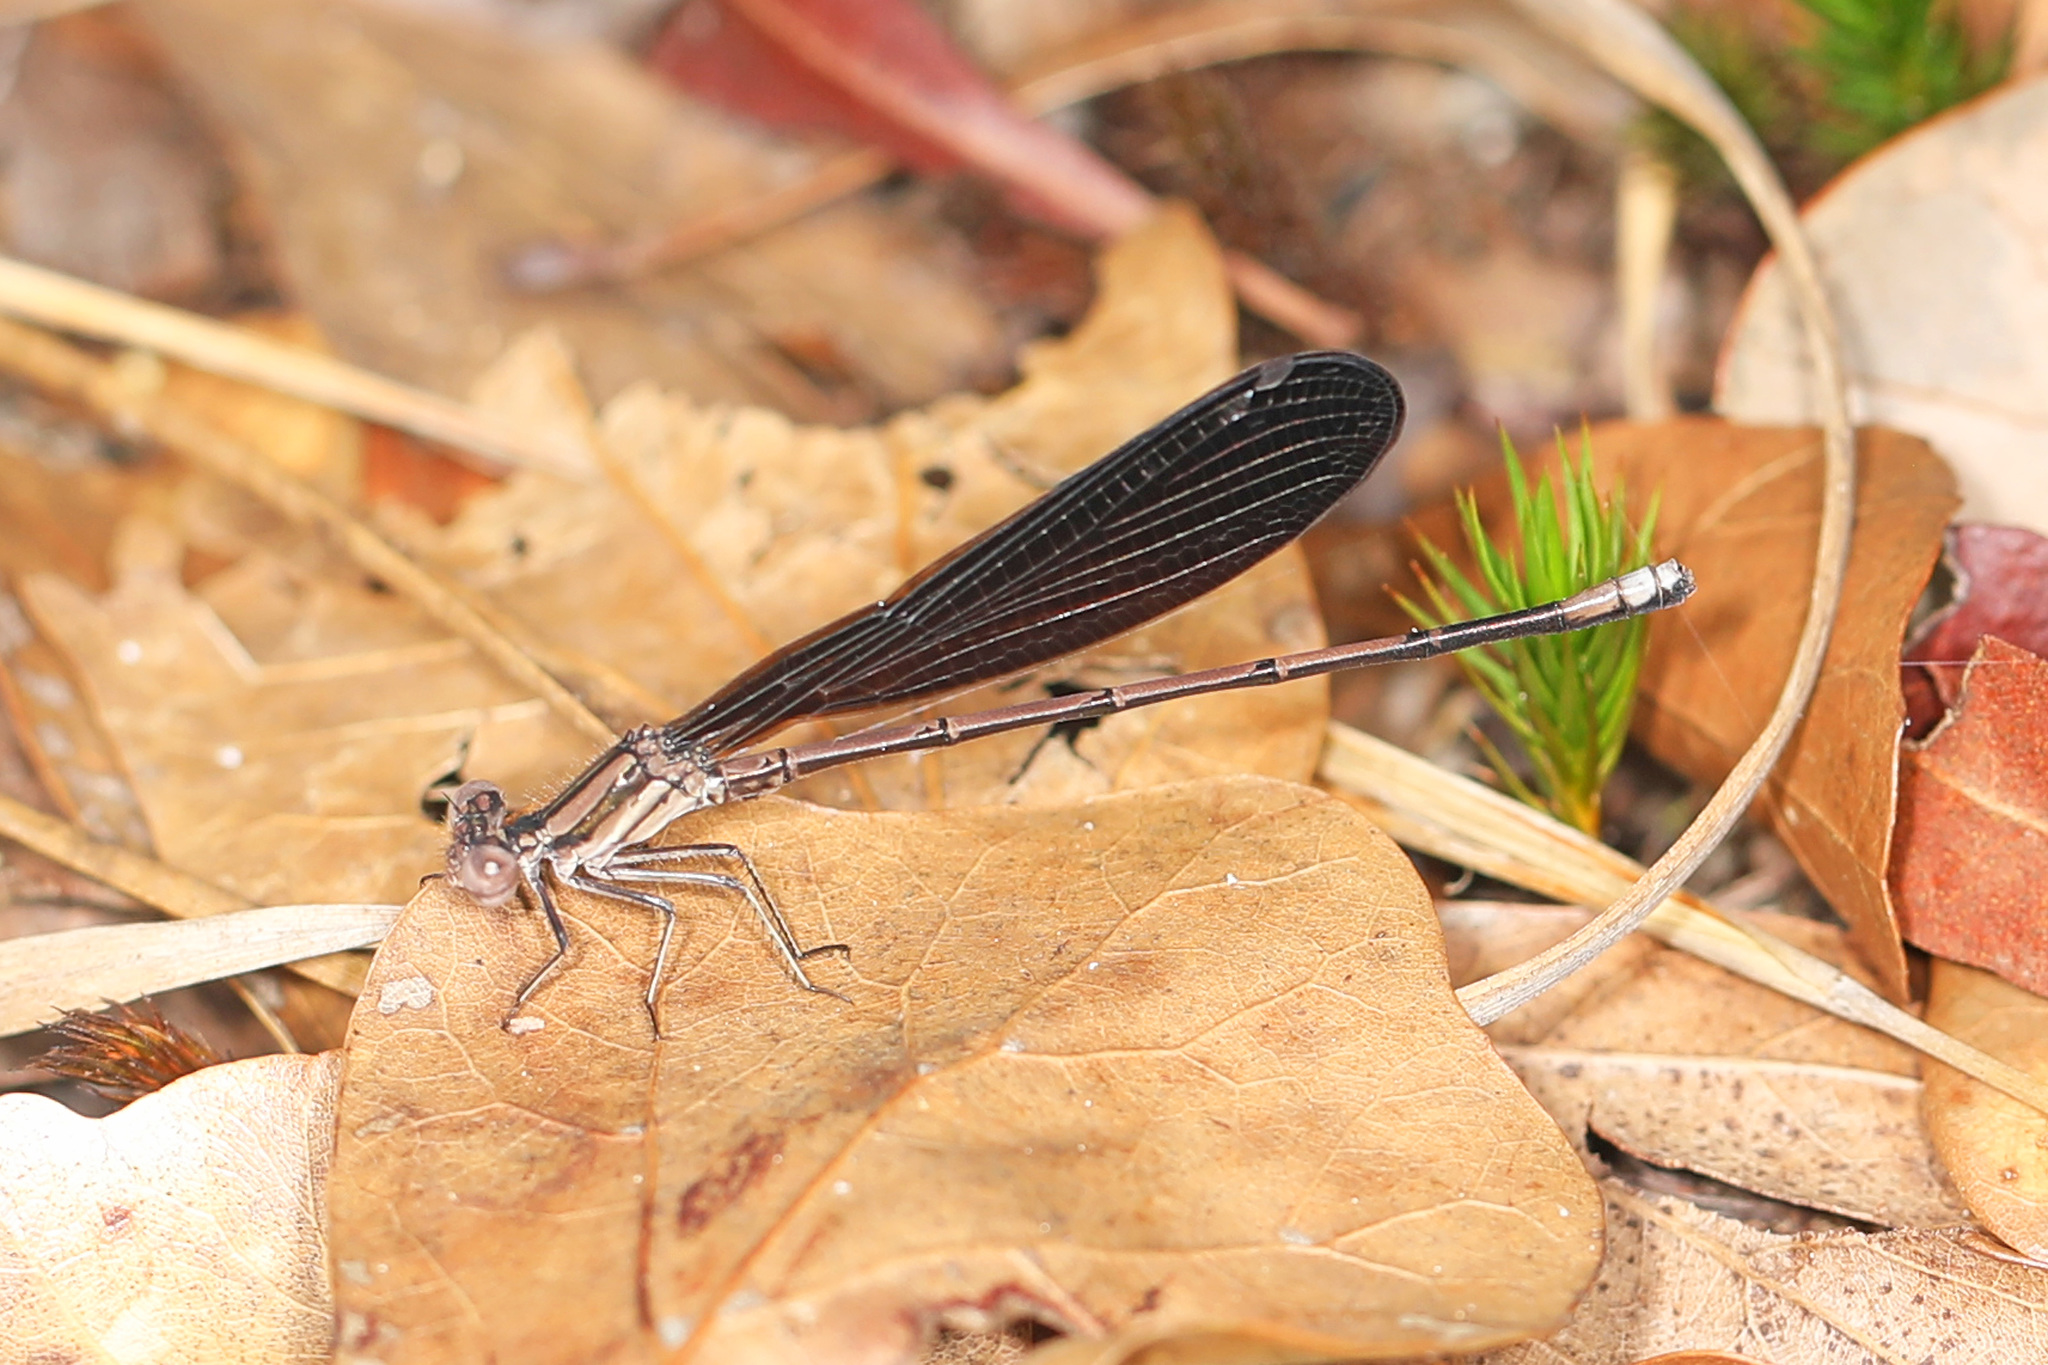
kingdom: Animalia
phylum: Arthropoda
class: Insecta
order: Odonata
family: Coenagrionidae
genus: Argia
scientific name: Argia fumipennis
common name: Variable dancer
